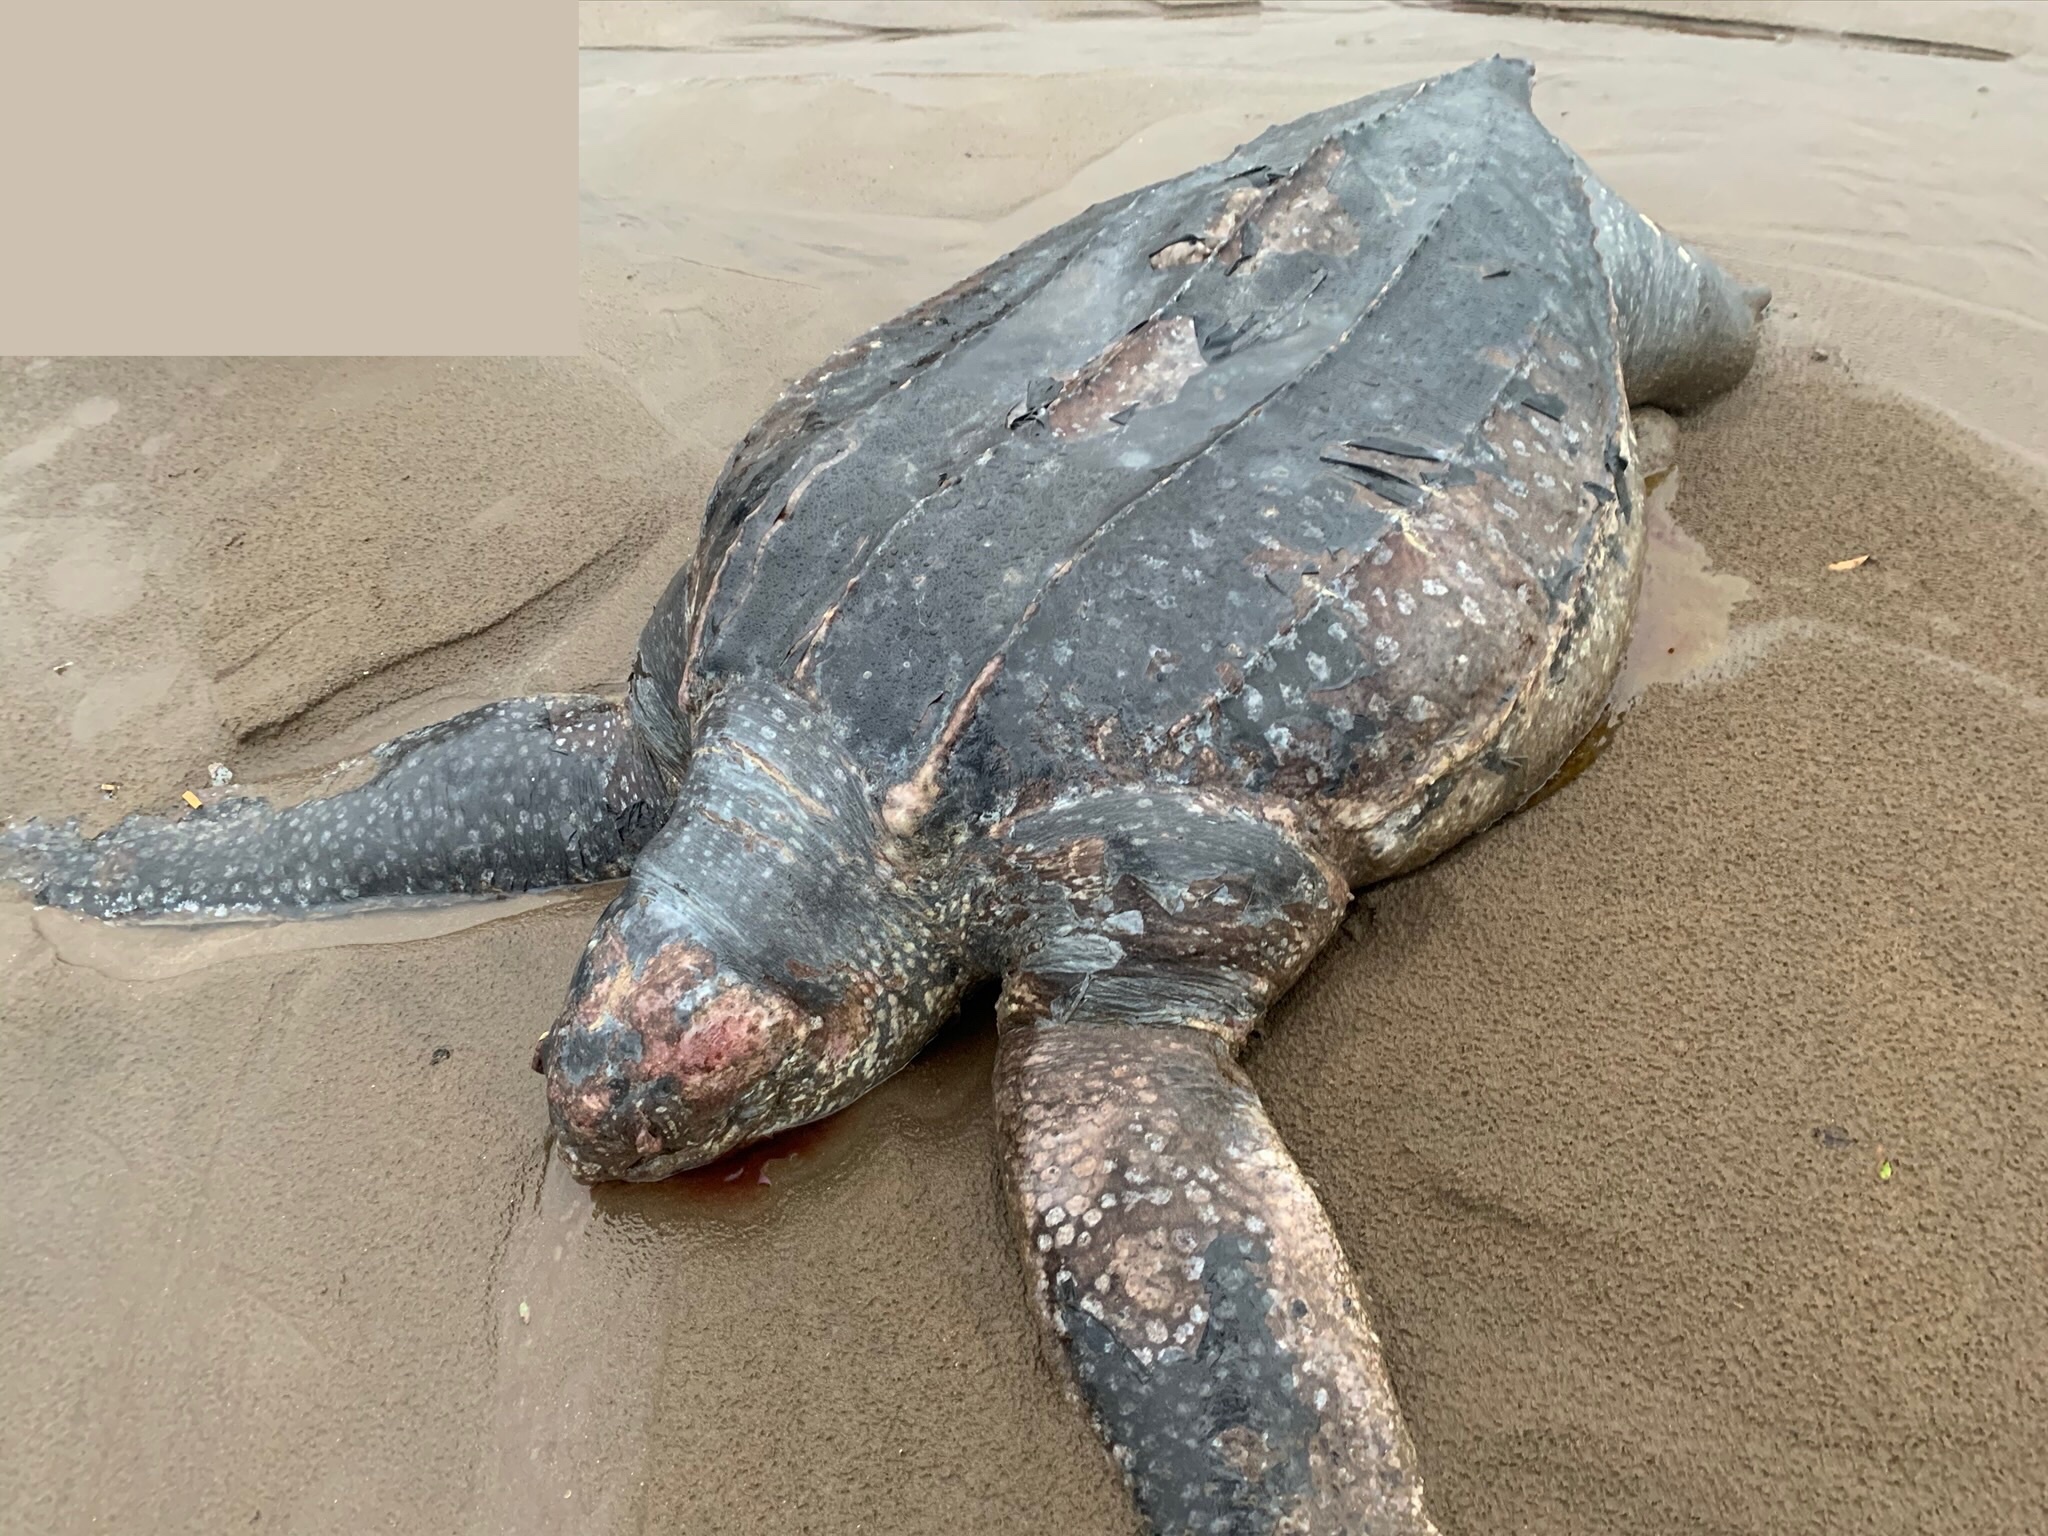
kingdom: Animalia
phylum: Chordata
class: Testudines
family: Dermochelyidae
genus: Dermochelys
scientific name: Dermochelys coriacea
